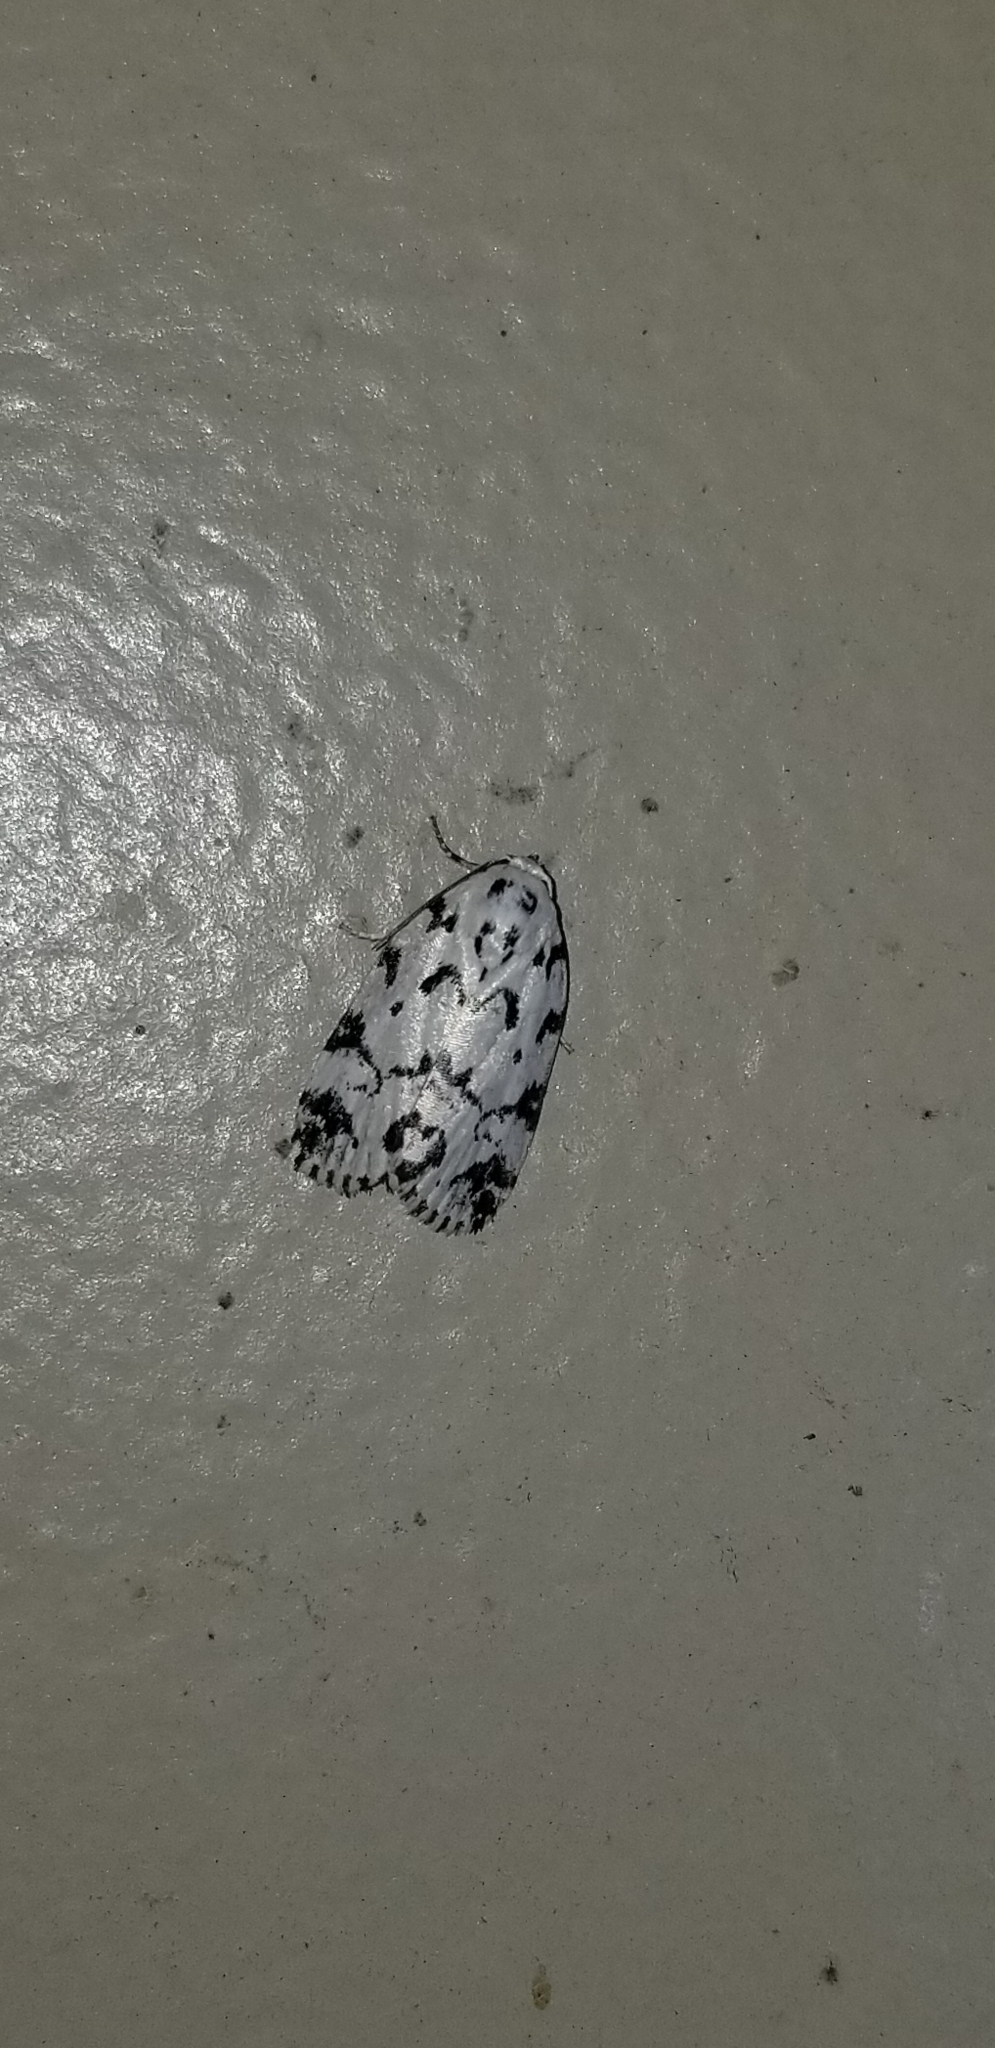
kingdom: Animalia
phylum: Arthropoda
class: Insecta
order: Lepidoptera
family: Noctuidae
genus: Polygrammate
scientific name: Polygrammate hebraeicum
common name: Hebrew moth
